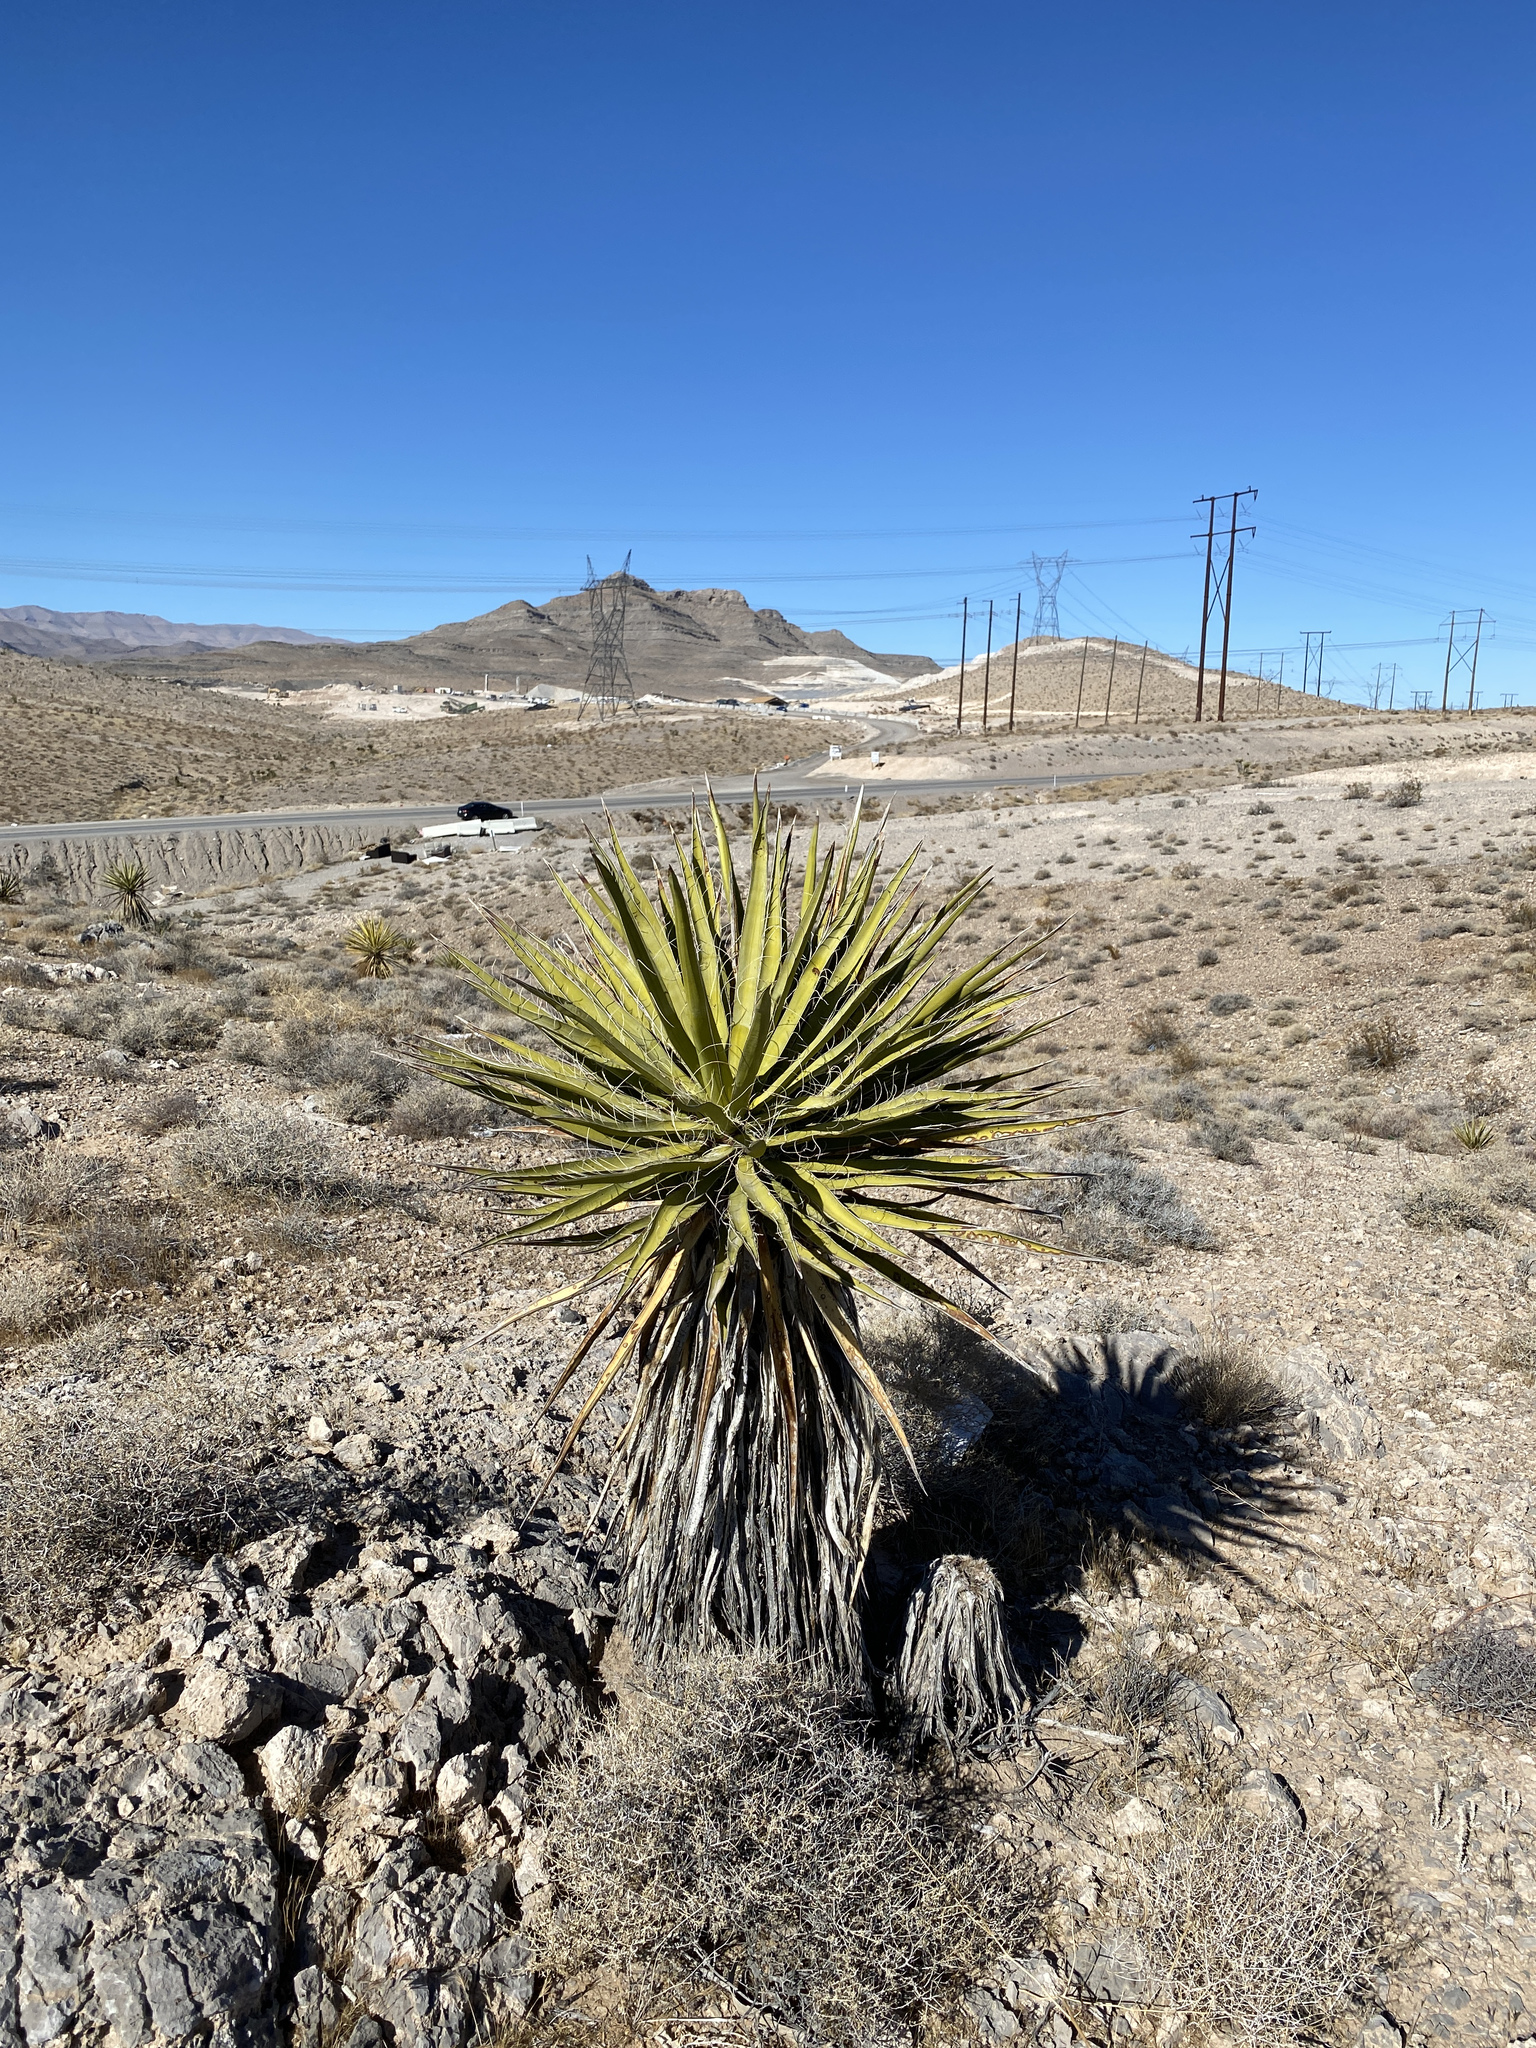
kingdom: Plantae
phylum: Tracheophyta
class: Liliopsida
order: Asparagales
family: Asparagaceae
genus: Yucca
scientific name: Yucca schidigera
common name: Mojave yucca
